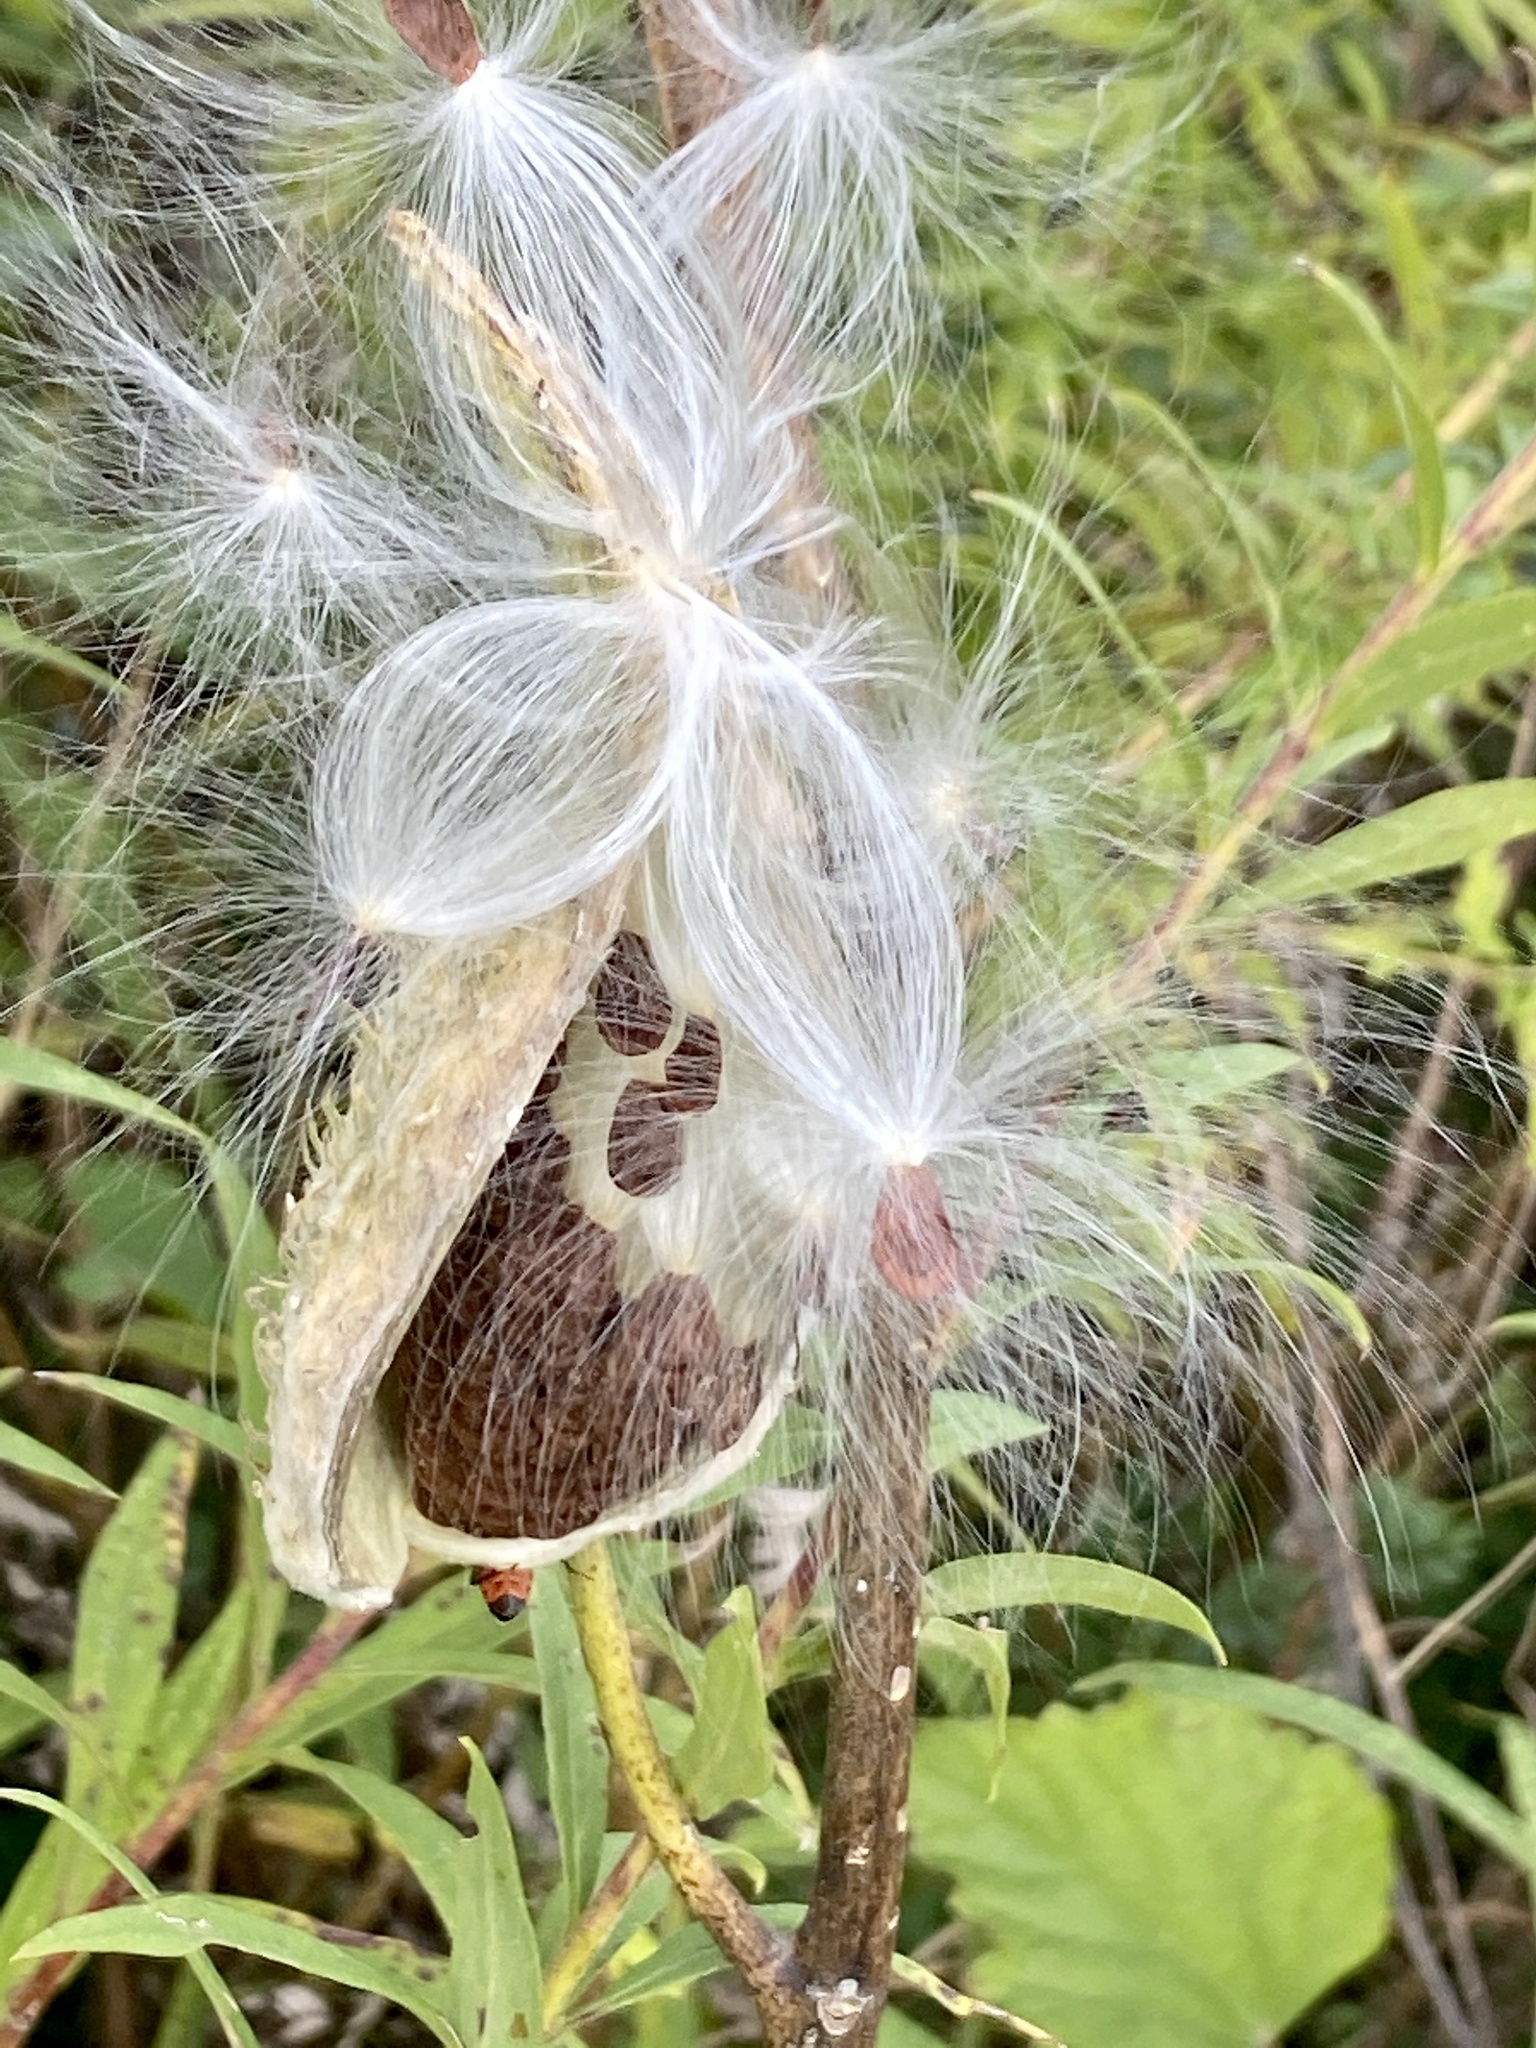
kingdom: Plantae
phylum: Tracheophyta
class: Magnoliopsida
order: Gentianales
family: Apocynaceae
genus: Asclepias
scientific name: Asclepias syriaca
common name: Common milkweed
